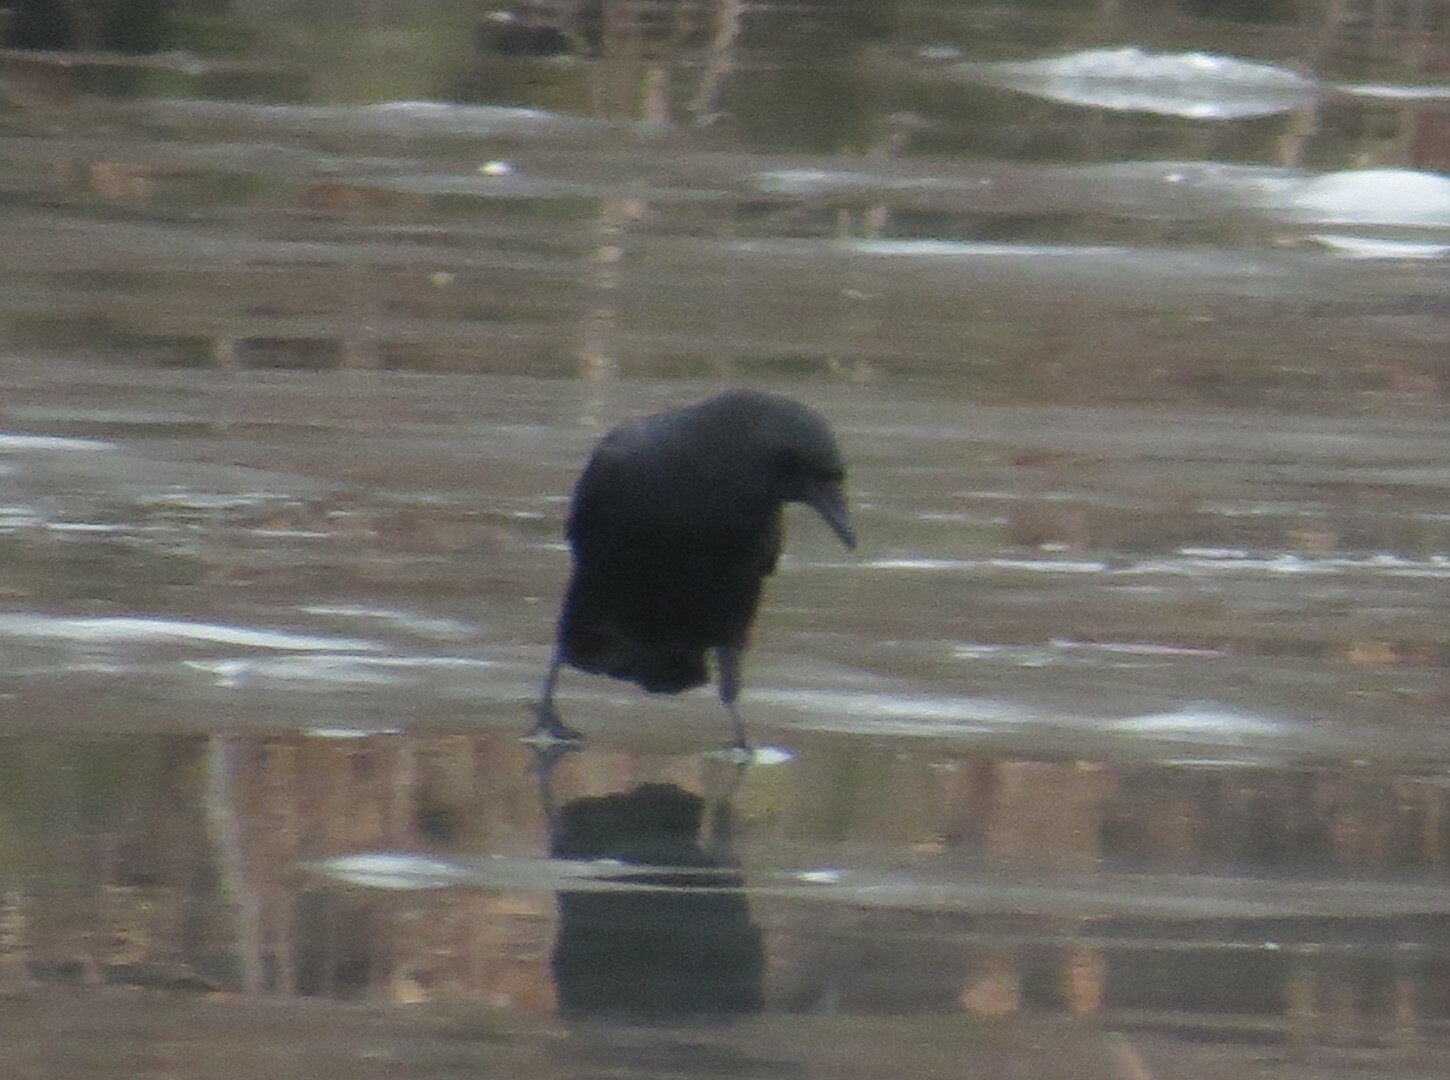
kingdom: Animalia
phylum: Chordata
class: Aves
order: Passeriformes
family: Corvidae
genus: Corvus
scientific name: Corvus brachyrhynchos
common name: American crow
